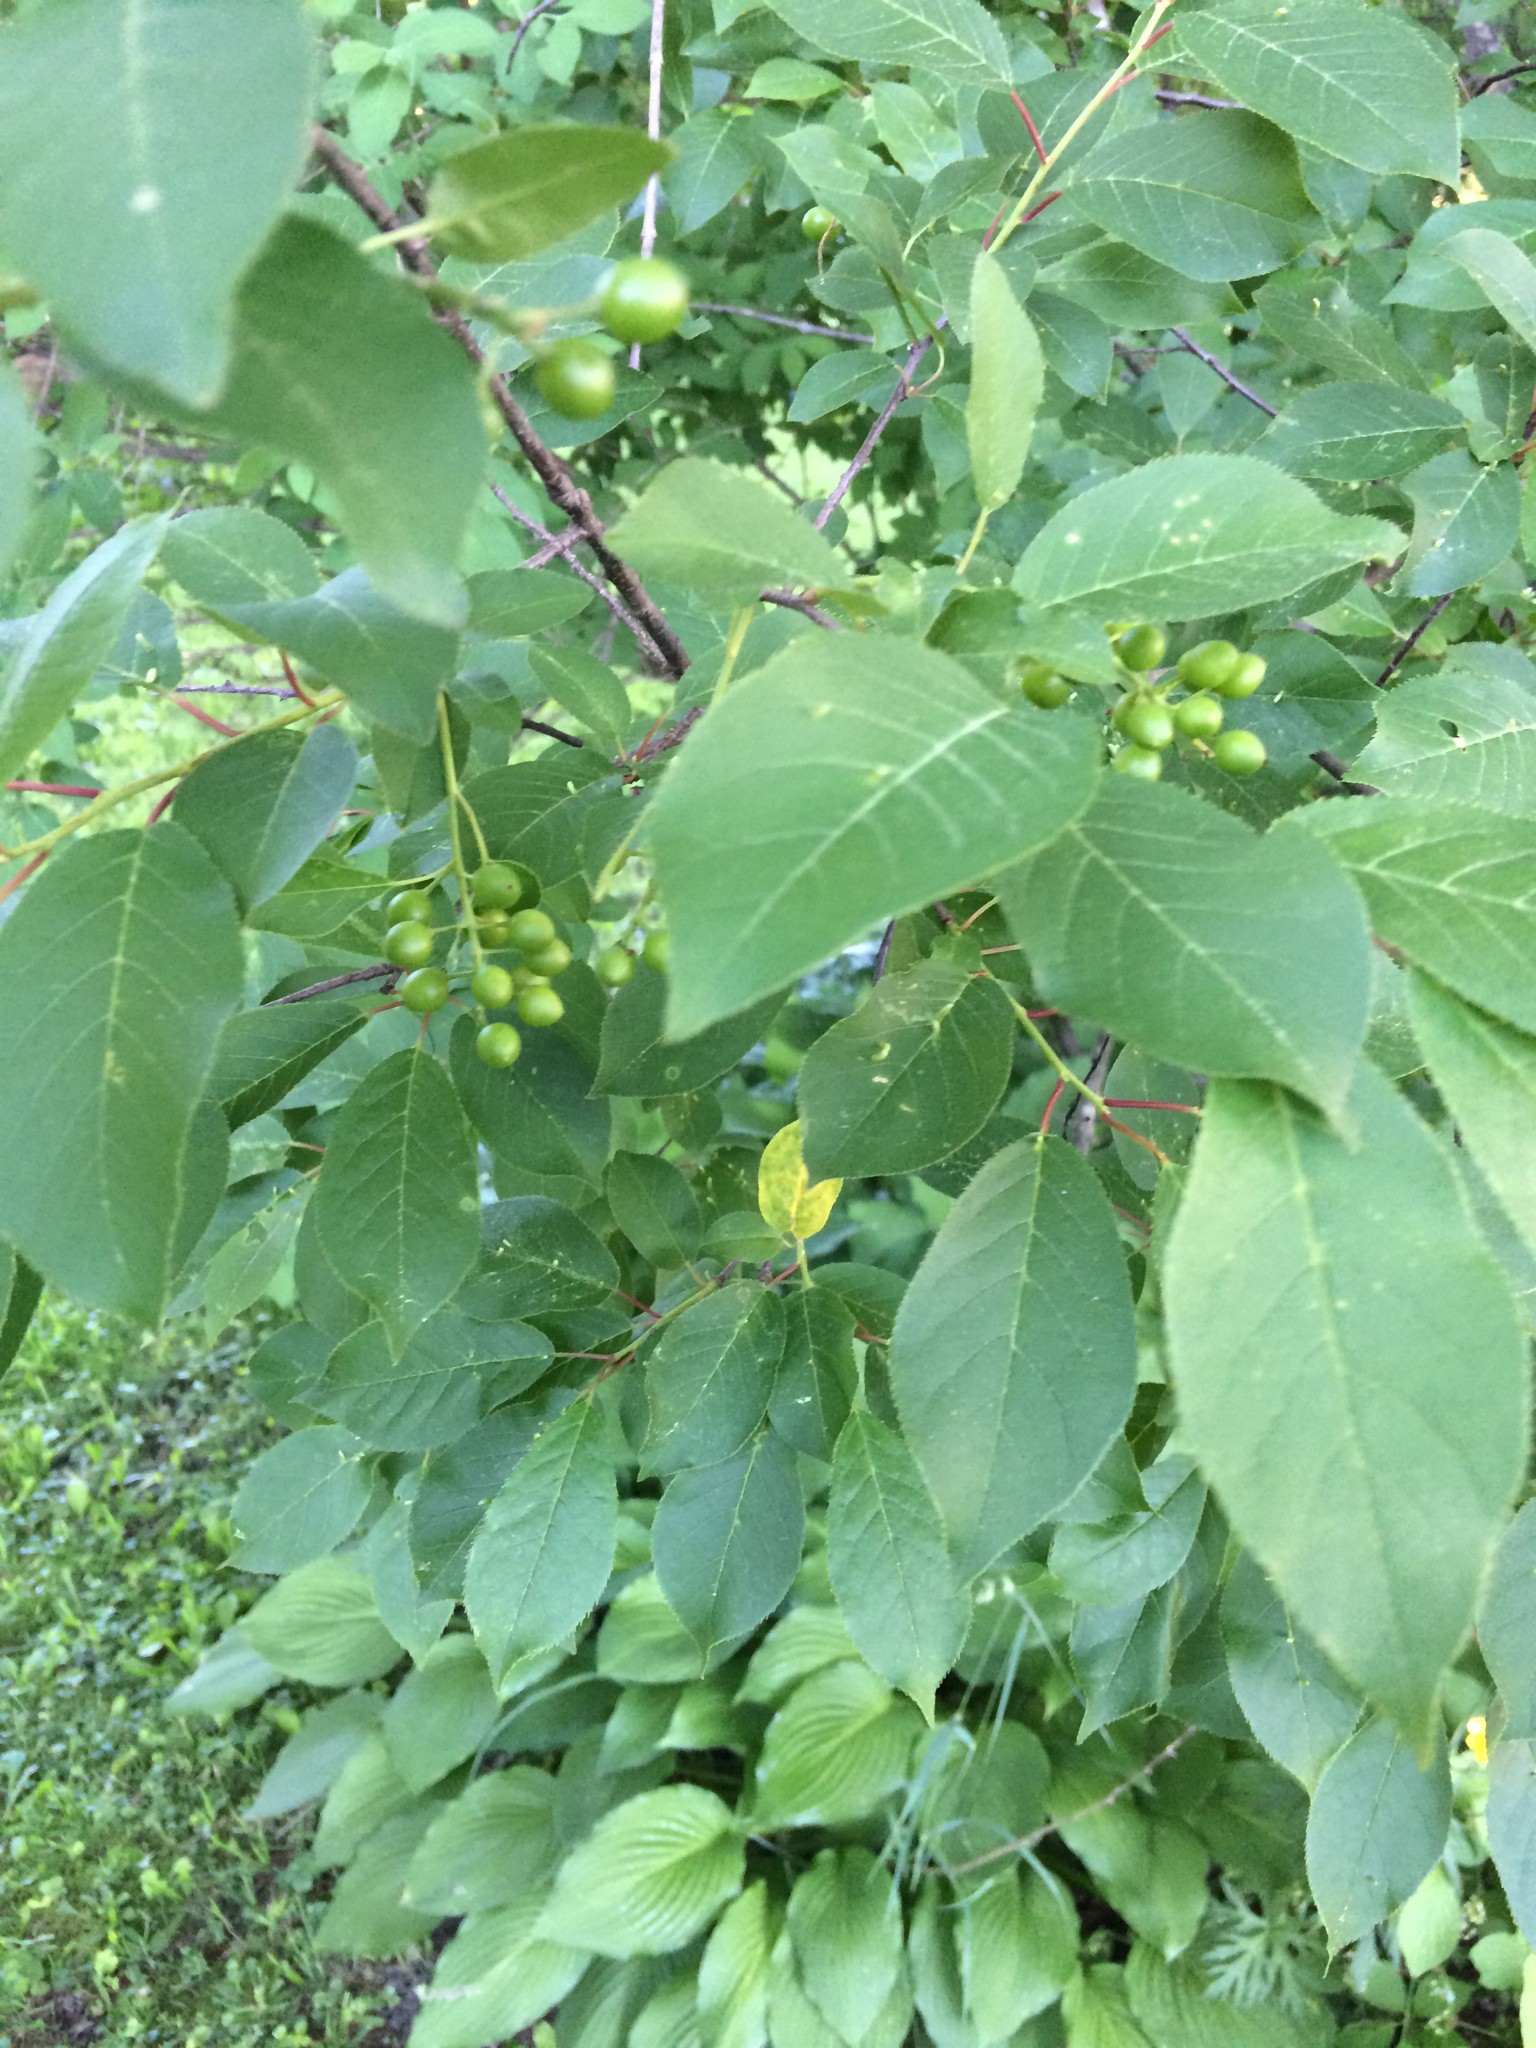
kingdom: Plantae
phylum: Tracheophyta
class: Magnoliopsida
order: Rosales
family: Rosaceae
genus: Prunus
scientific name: Prunus virginiana
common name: Chokecherry
